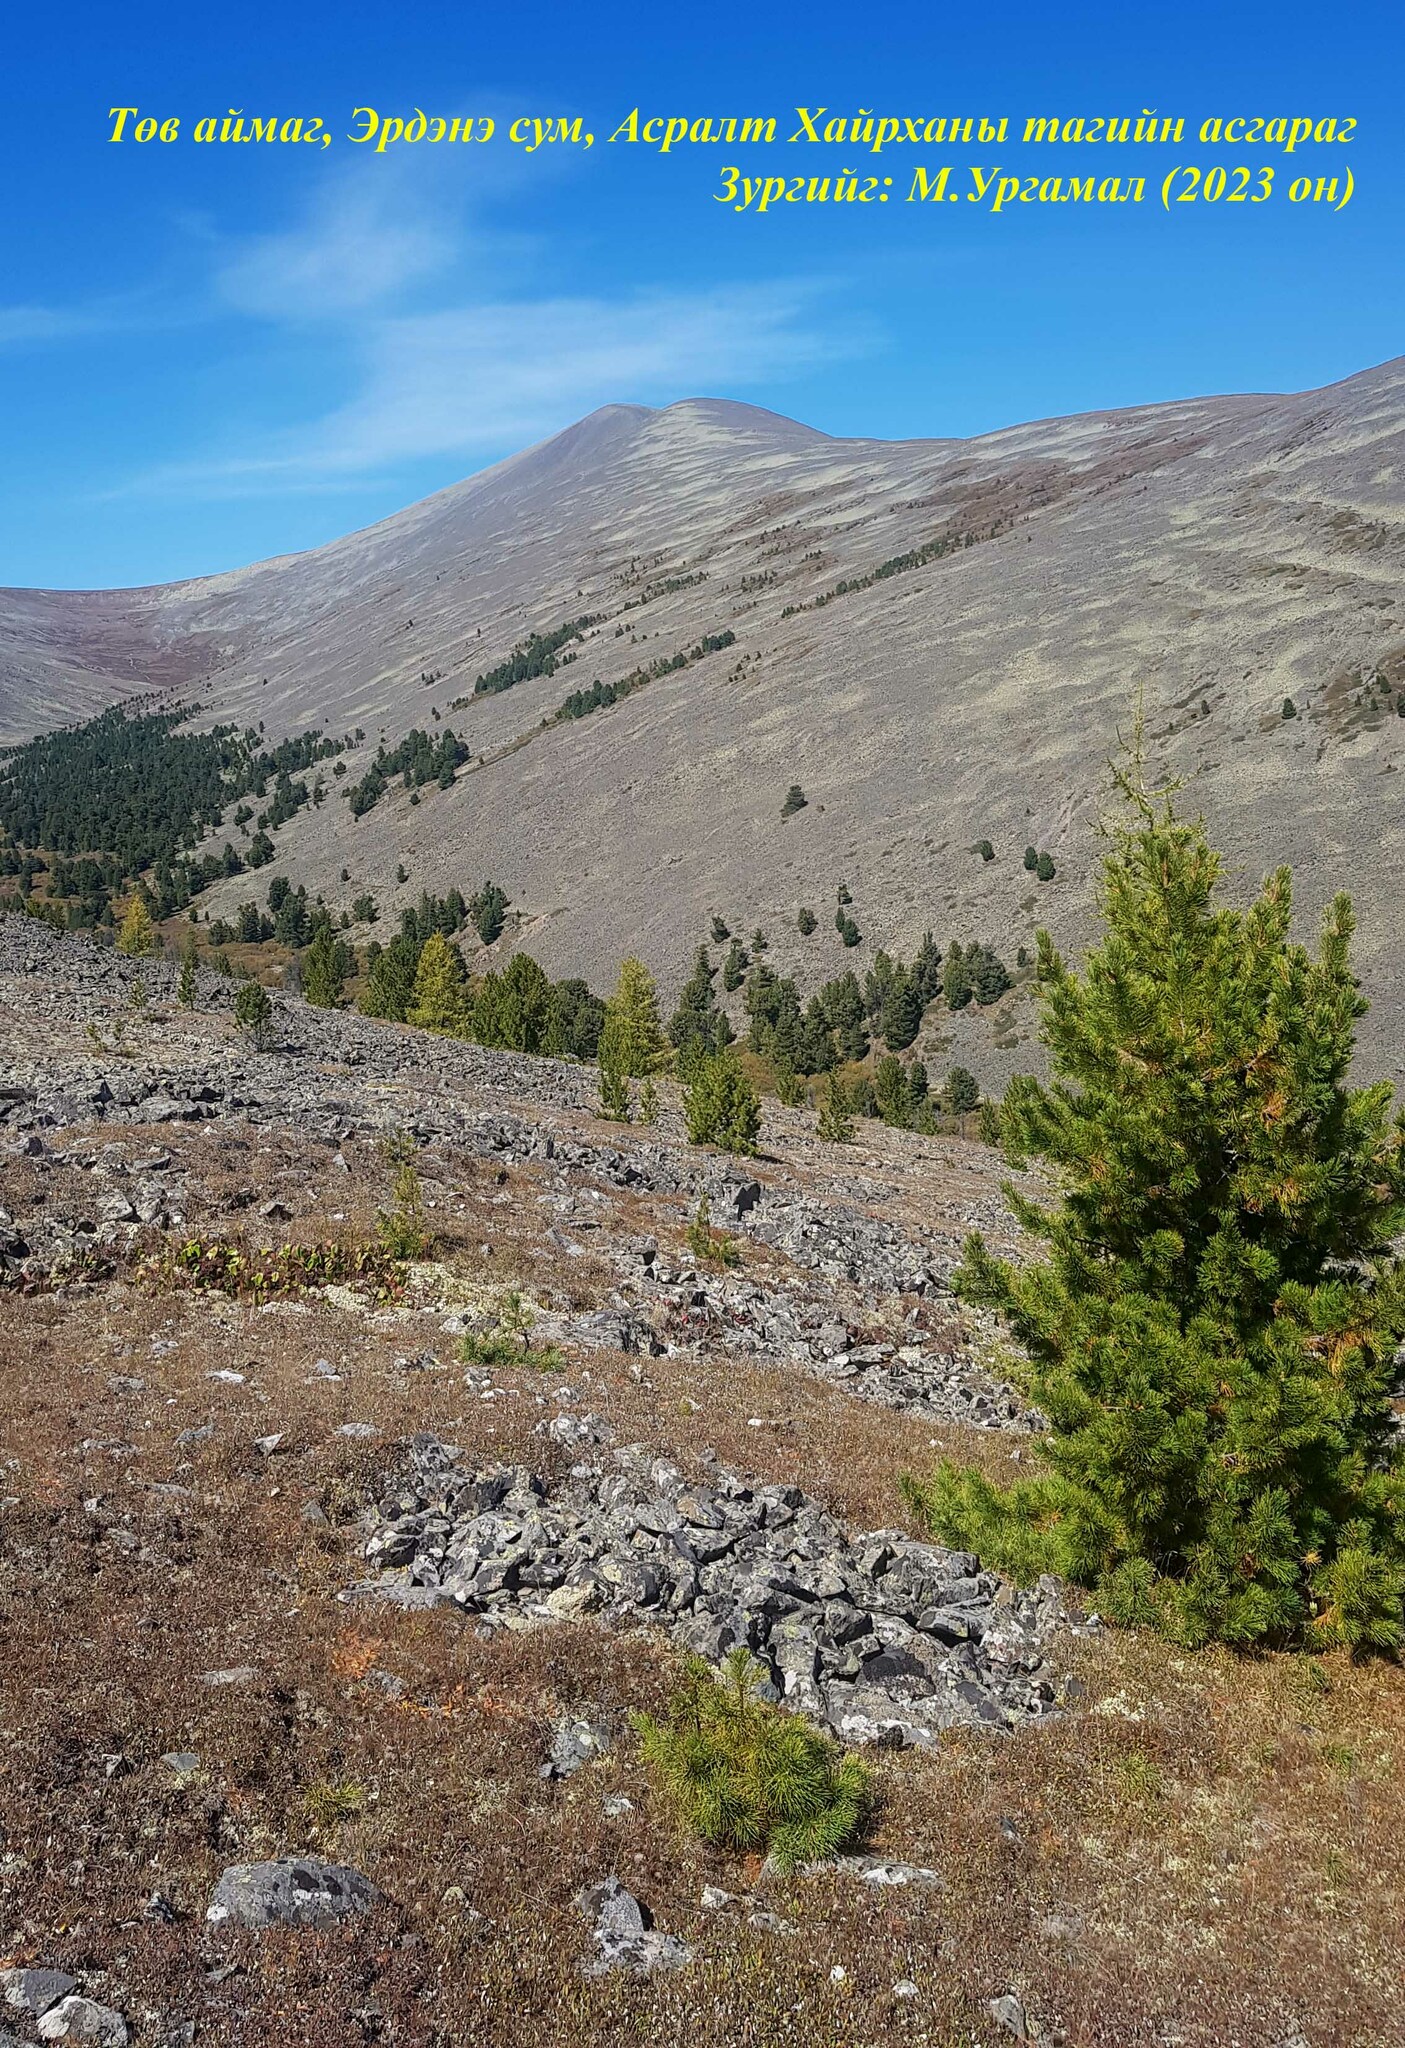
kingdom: Plantae
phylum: Tracheophyta
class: Pinopsida
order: Pinales
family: Pinaceae
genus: Pinus
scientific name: Pinus sibirica
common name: Siberian pine
